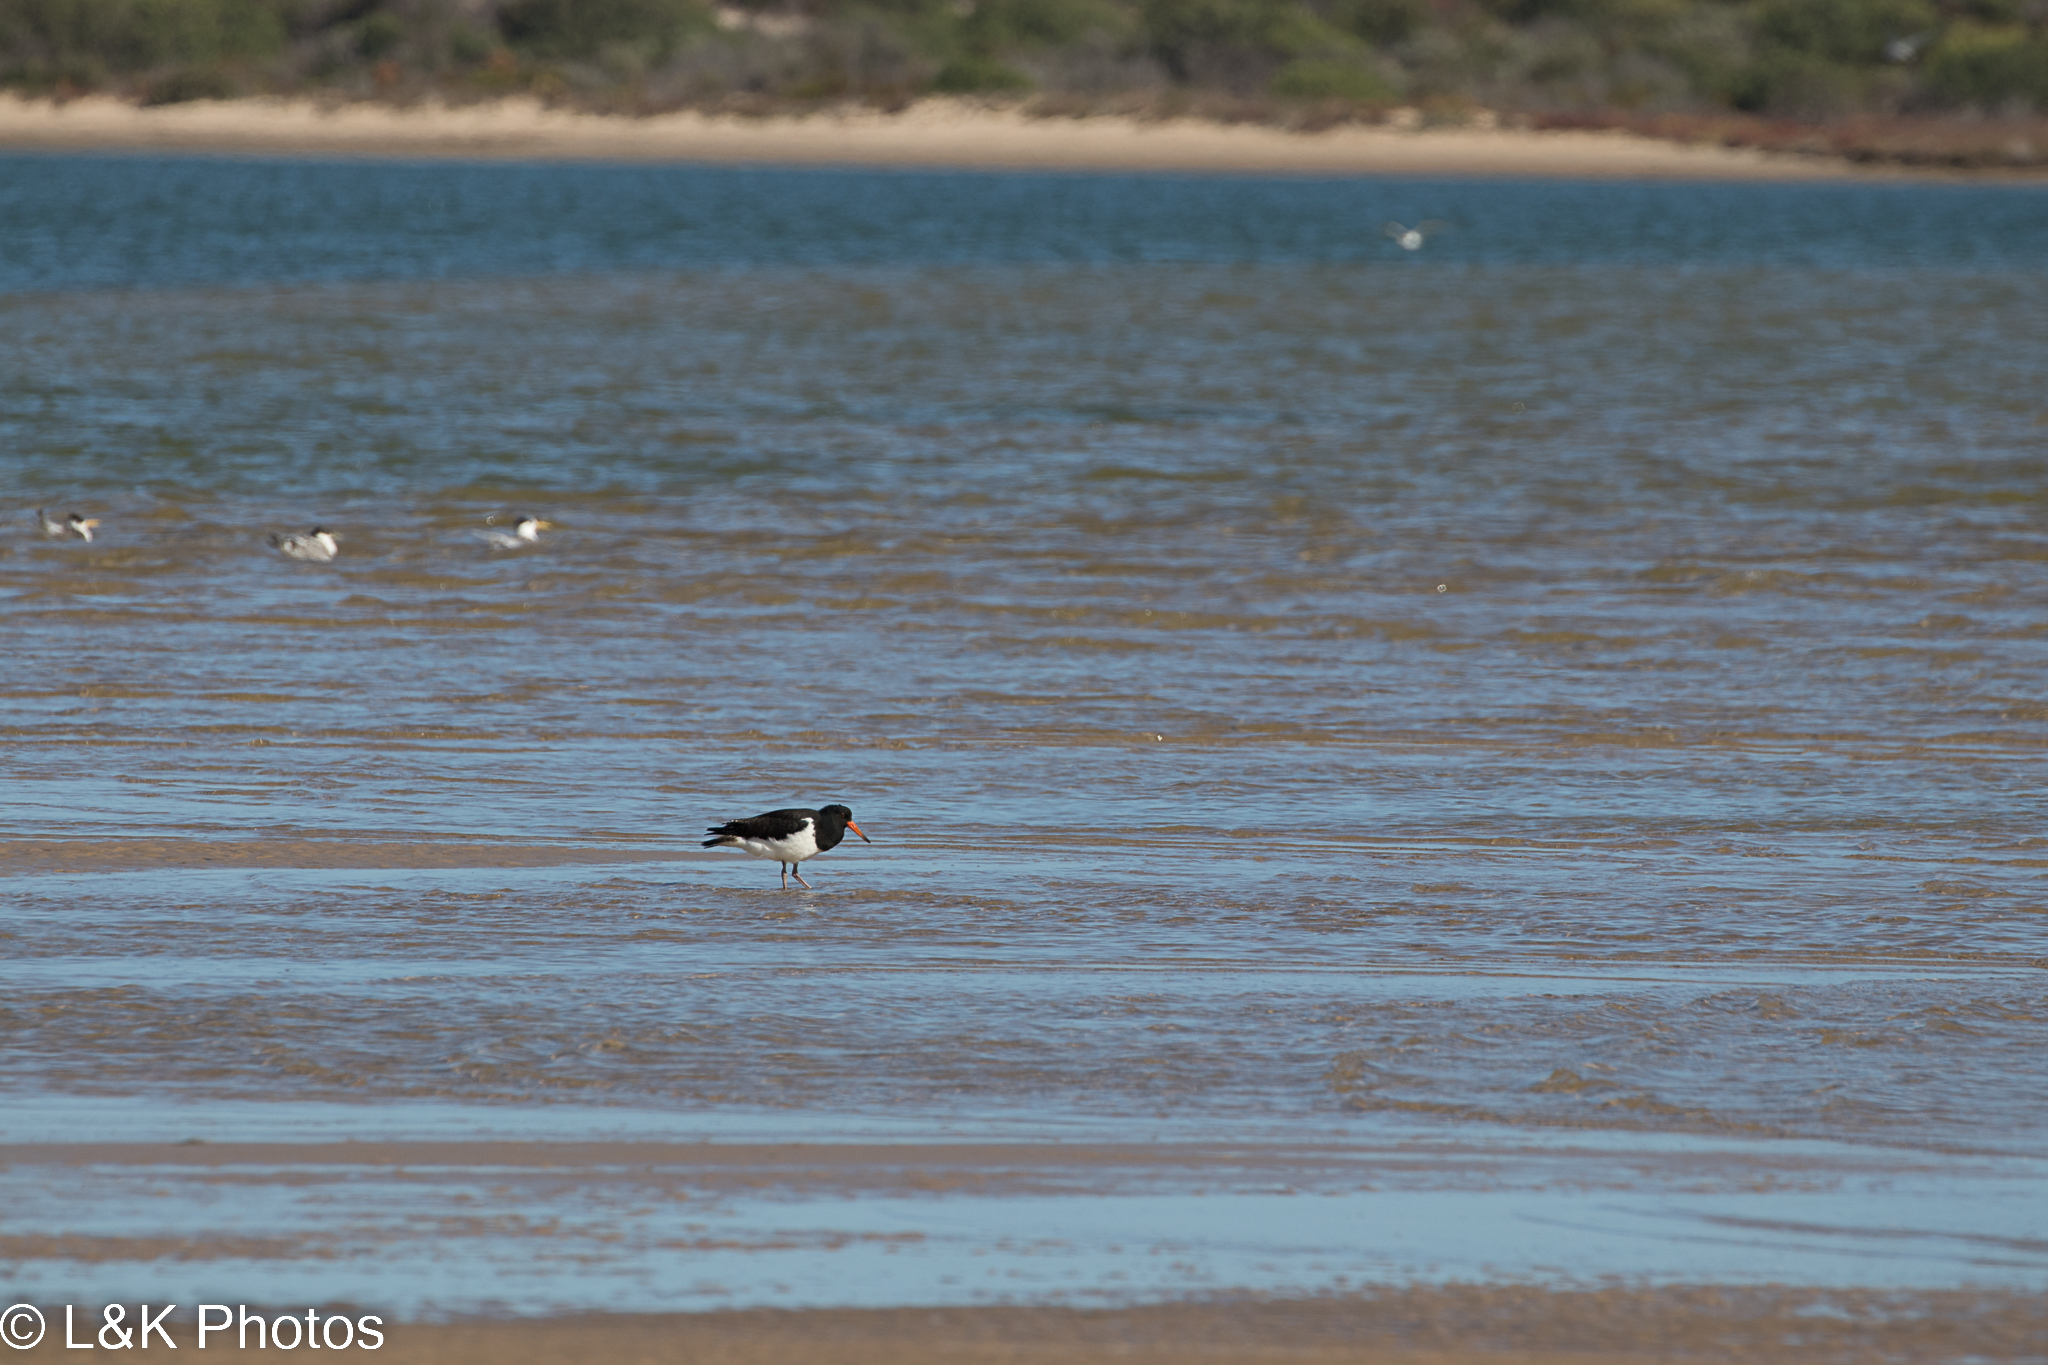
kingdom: Animalia
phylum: Chordata
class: Aves
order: Charadriiformes
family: Haematopodidae
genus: Haematopus
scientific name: Haematopus longirostris
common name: Pied oystercatcher
